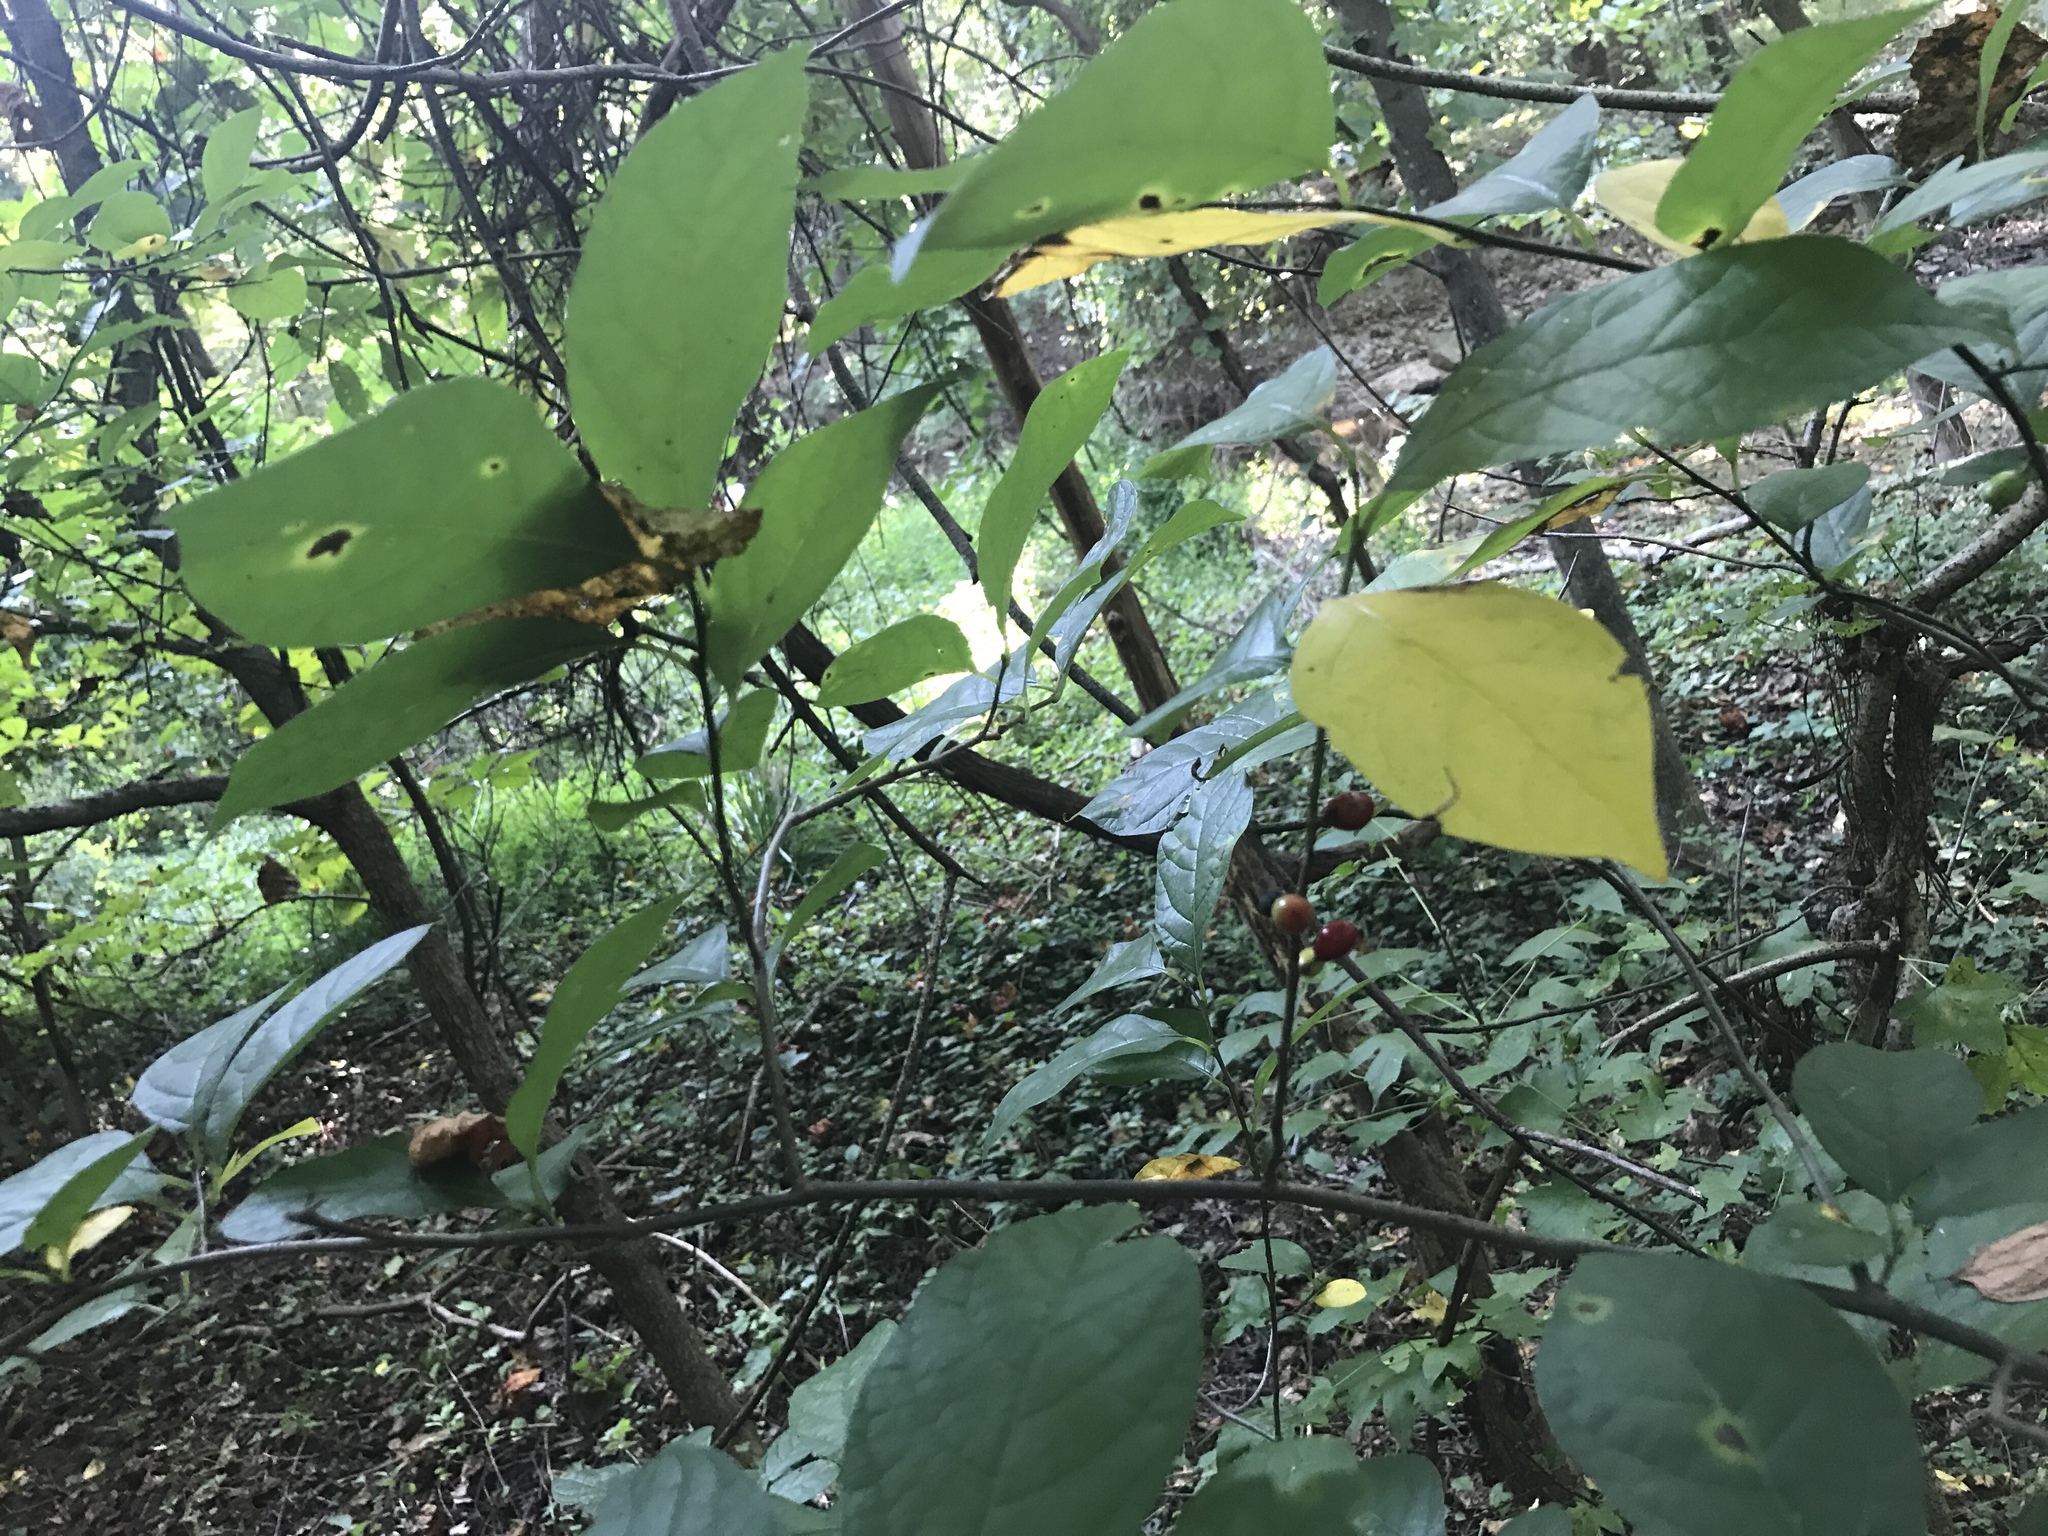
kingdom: Plantae
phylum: Tracheophyta
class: Magnoliopsida
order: Laurales
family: Lauraceae
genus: Lindera
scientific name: Lindera benzoin
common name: Spicebush
